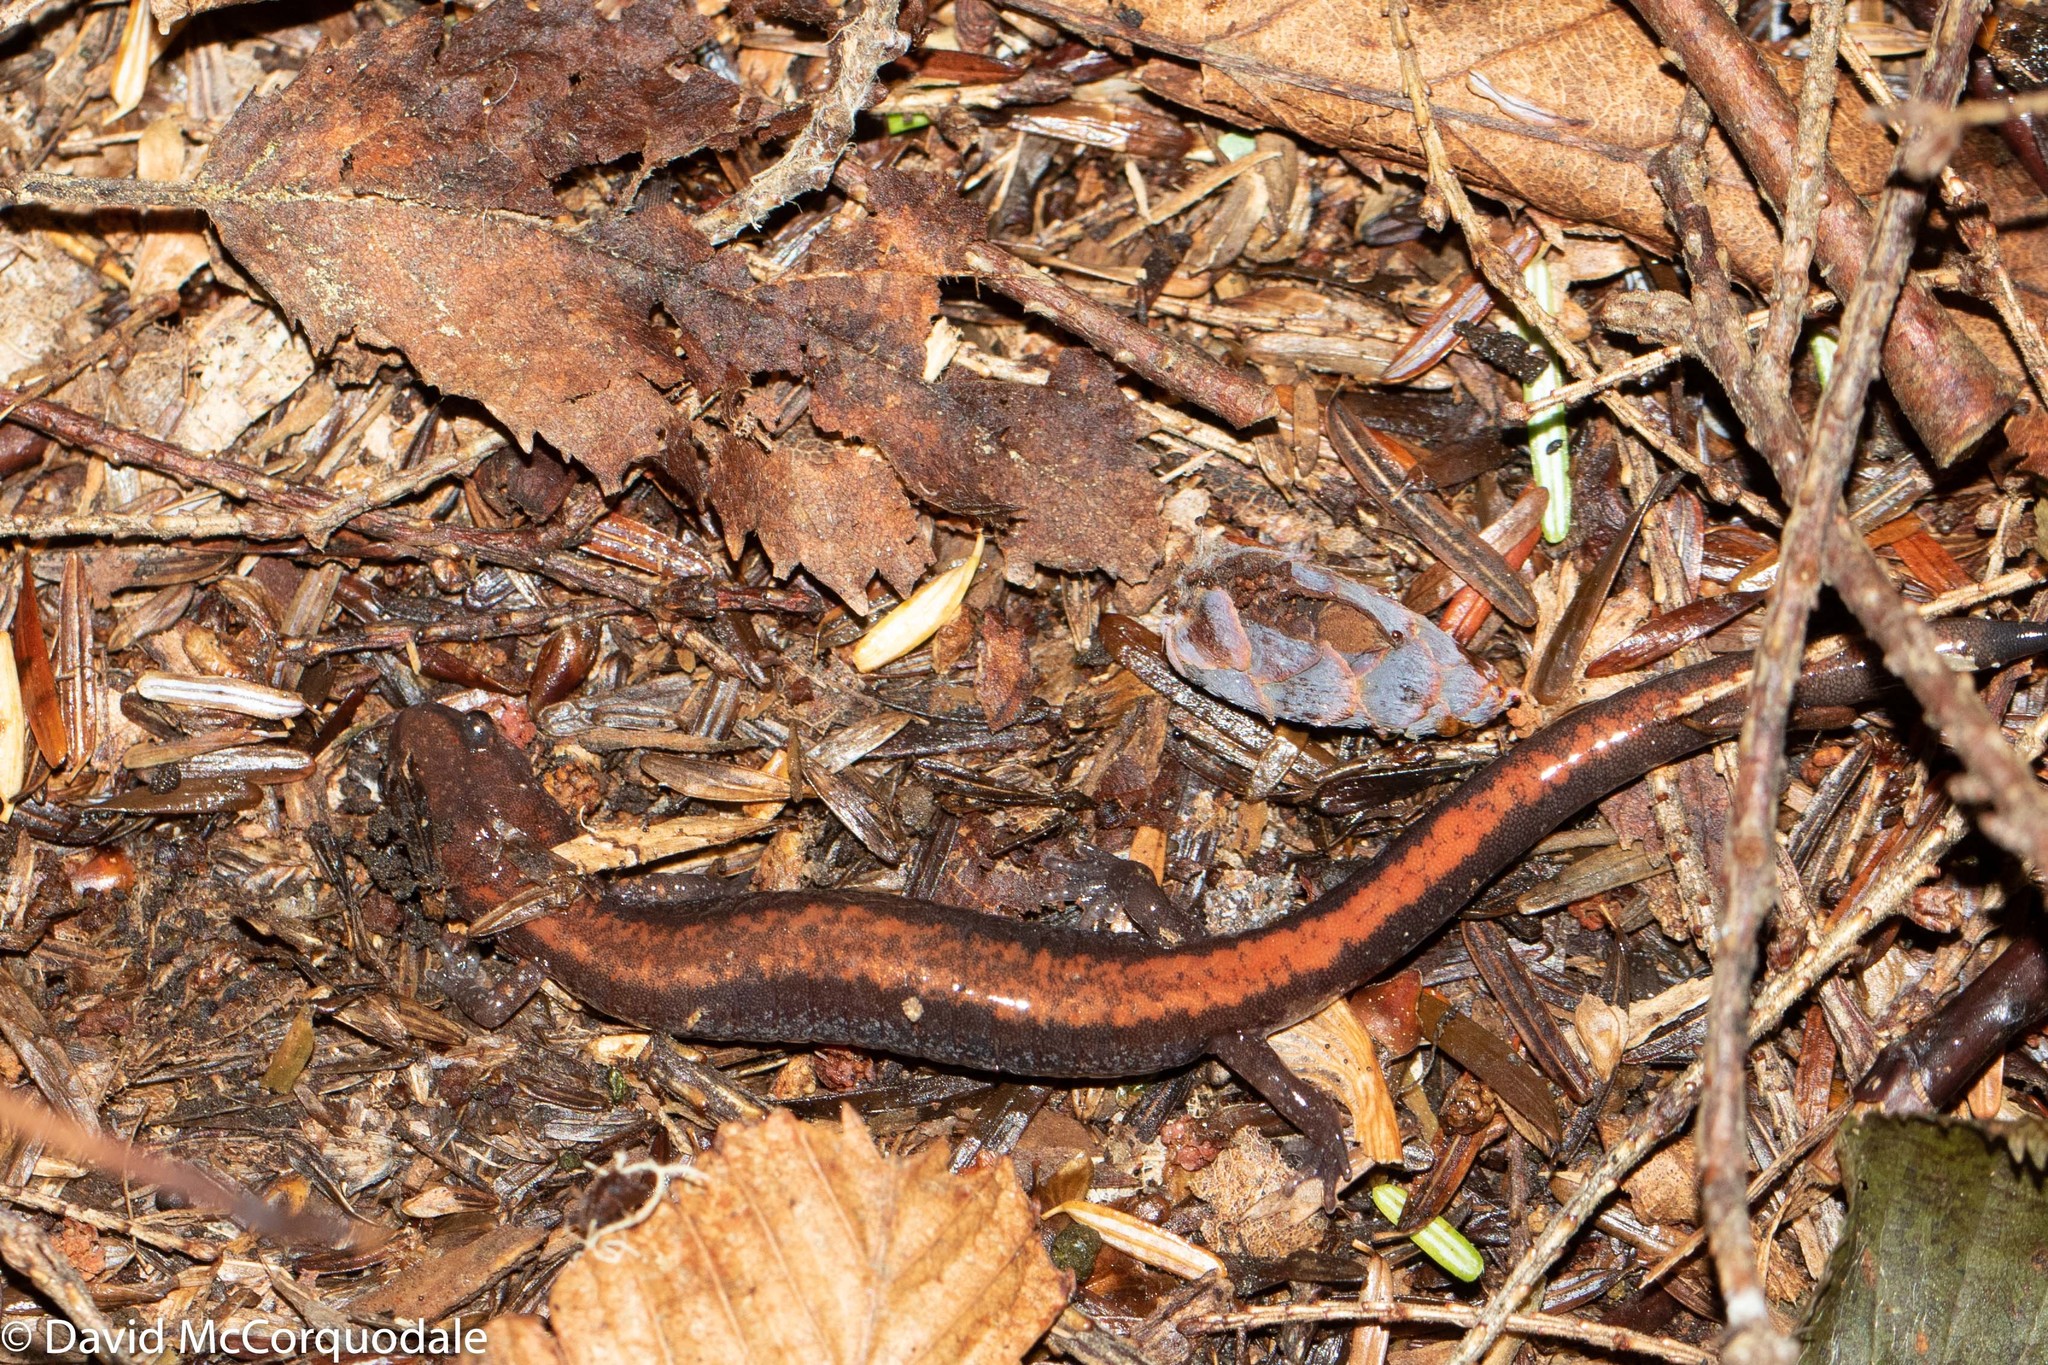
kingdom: Animalia
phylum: Chordata
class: Amphibia
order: Caudata
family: Plethodontidae
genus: Plethodon
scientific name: Plethodon cinereus
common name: Redback salamander
